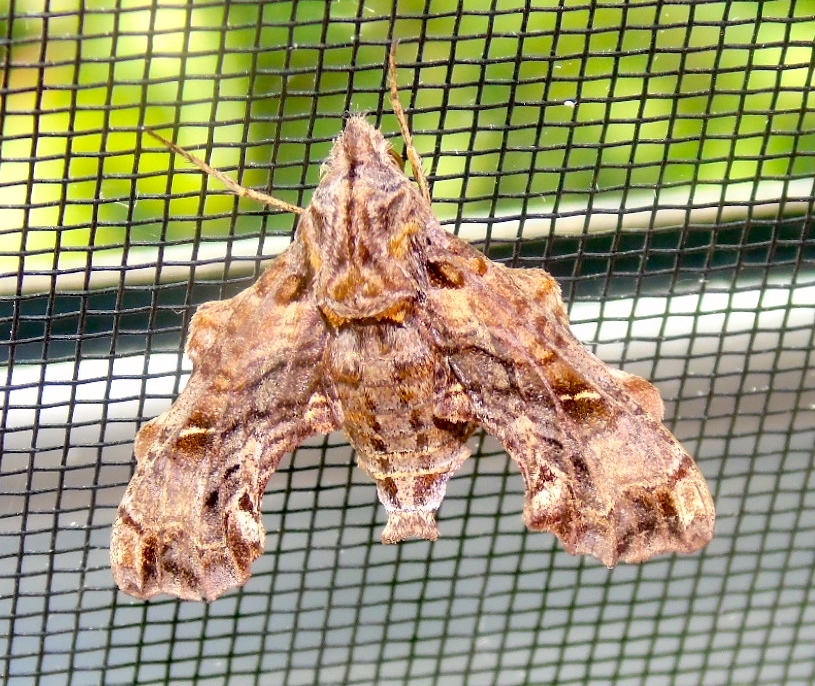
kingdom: Animalia
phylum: Arthropoda
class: Insecta
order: Lepidoptera
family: Sphingidae
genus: Neogurelca
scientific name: Neogurelca sonorensis
